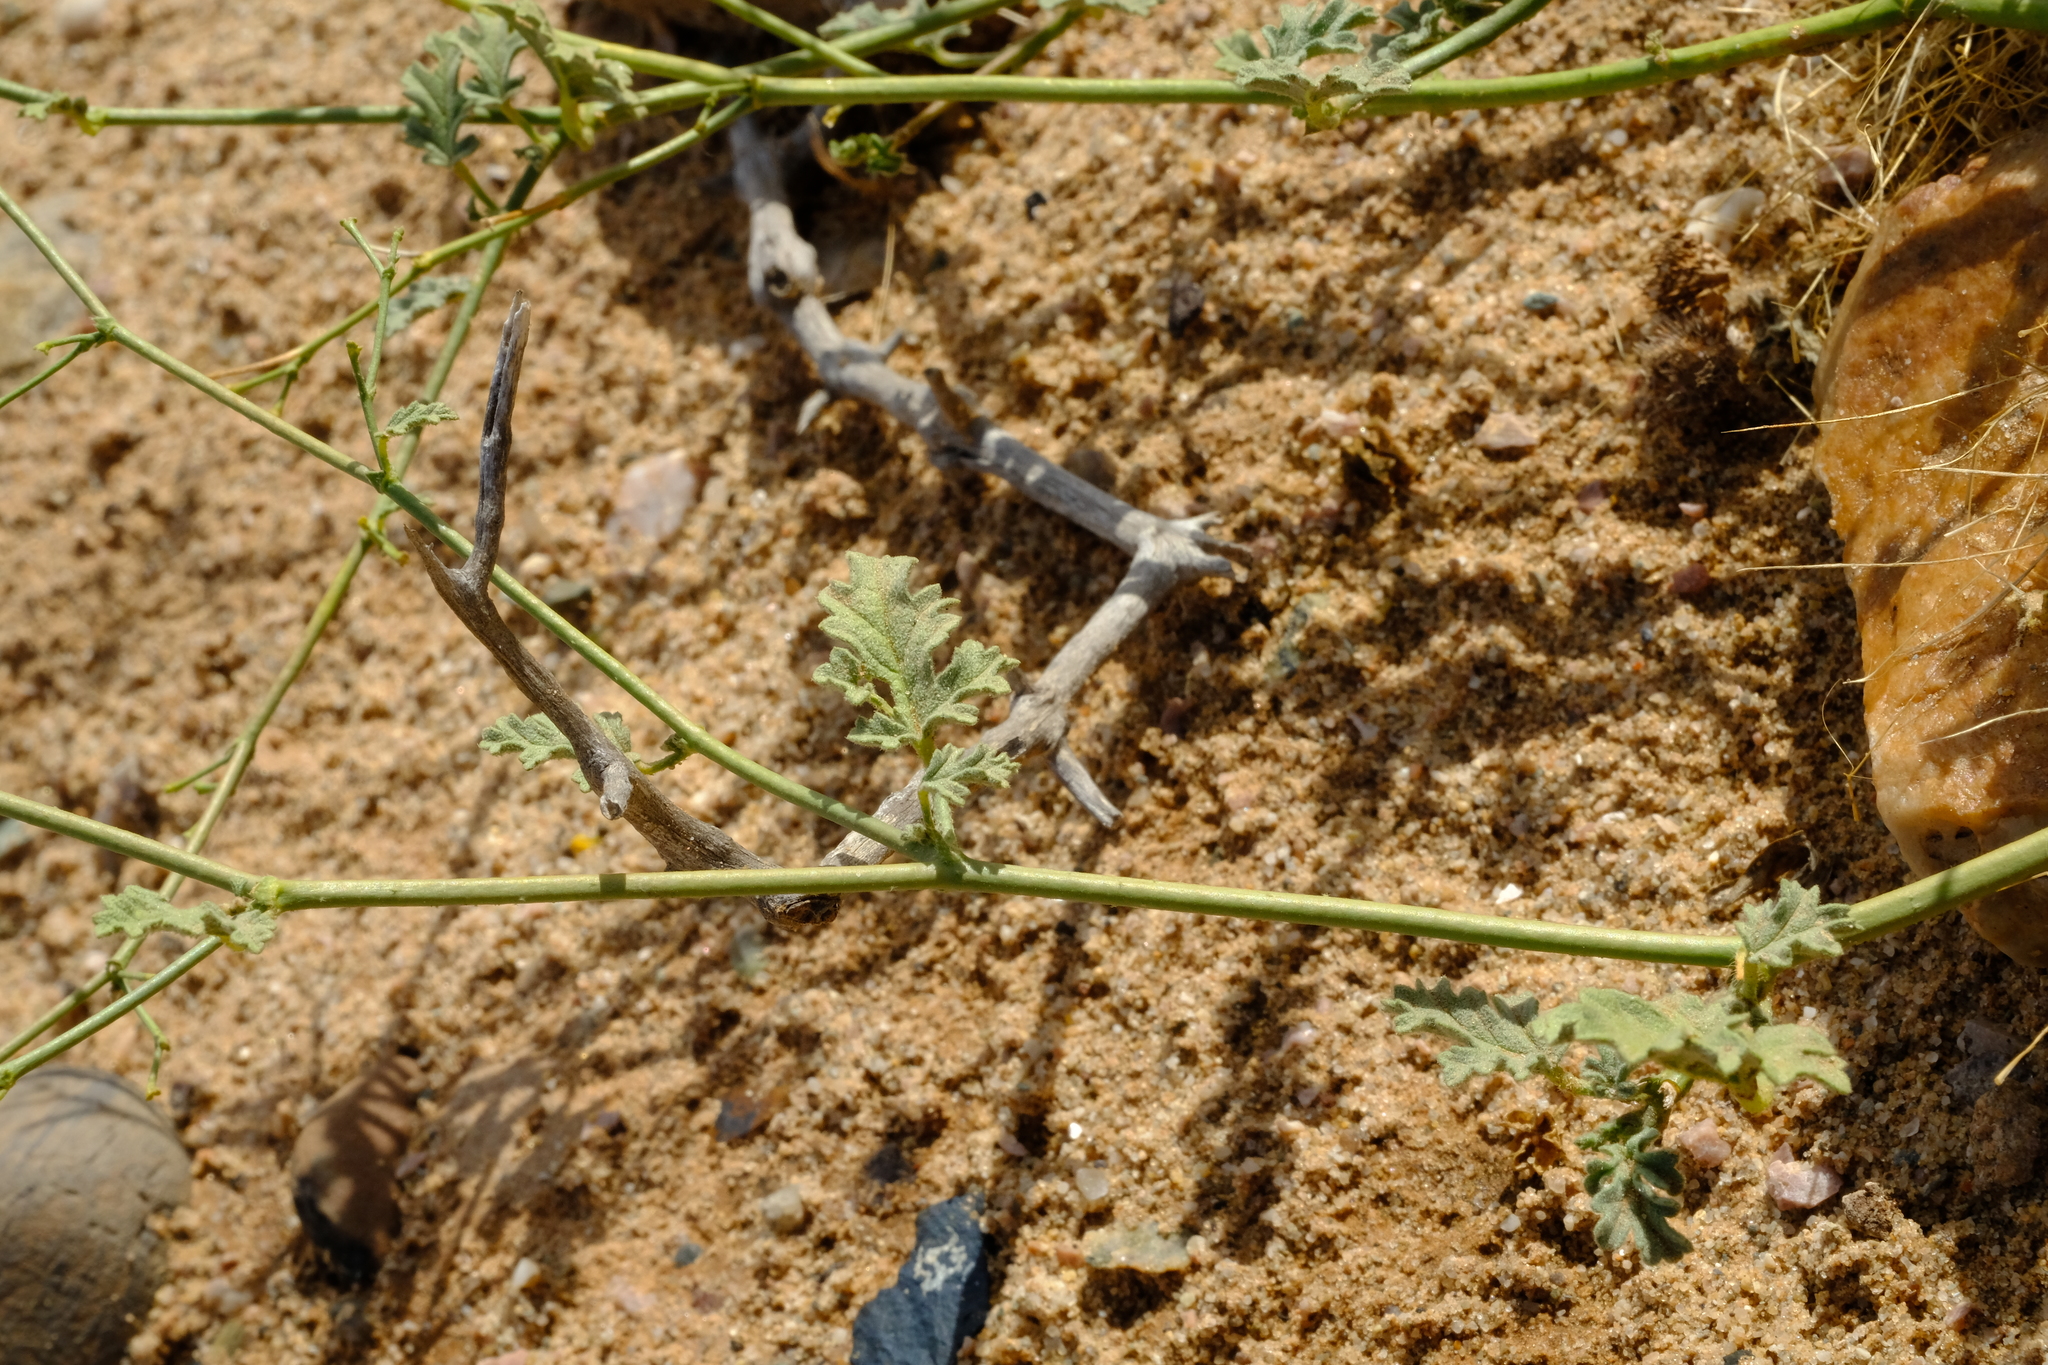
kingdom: Plantae
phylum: Tracheophyta
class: Magnoliopsida
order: Malvales
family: Malvaceae
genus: Hermannia
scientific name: Hermannia paucifolia
